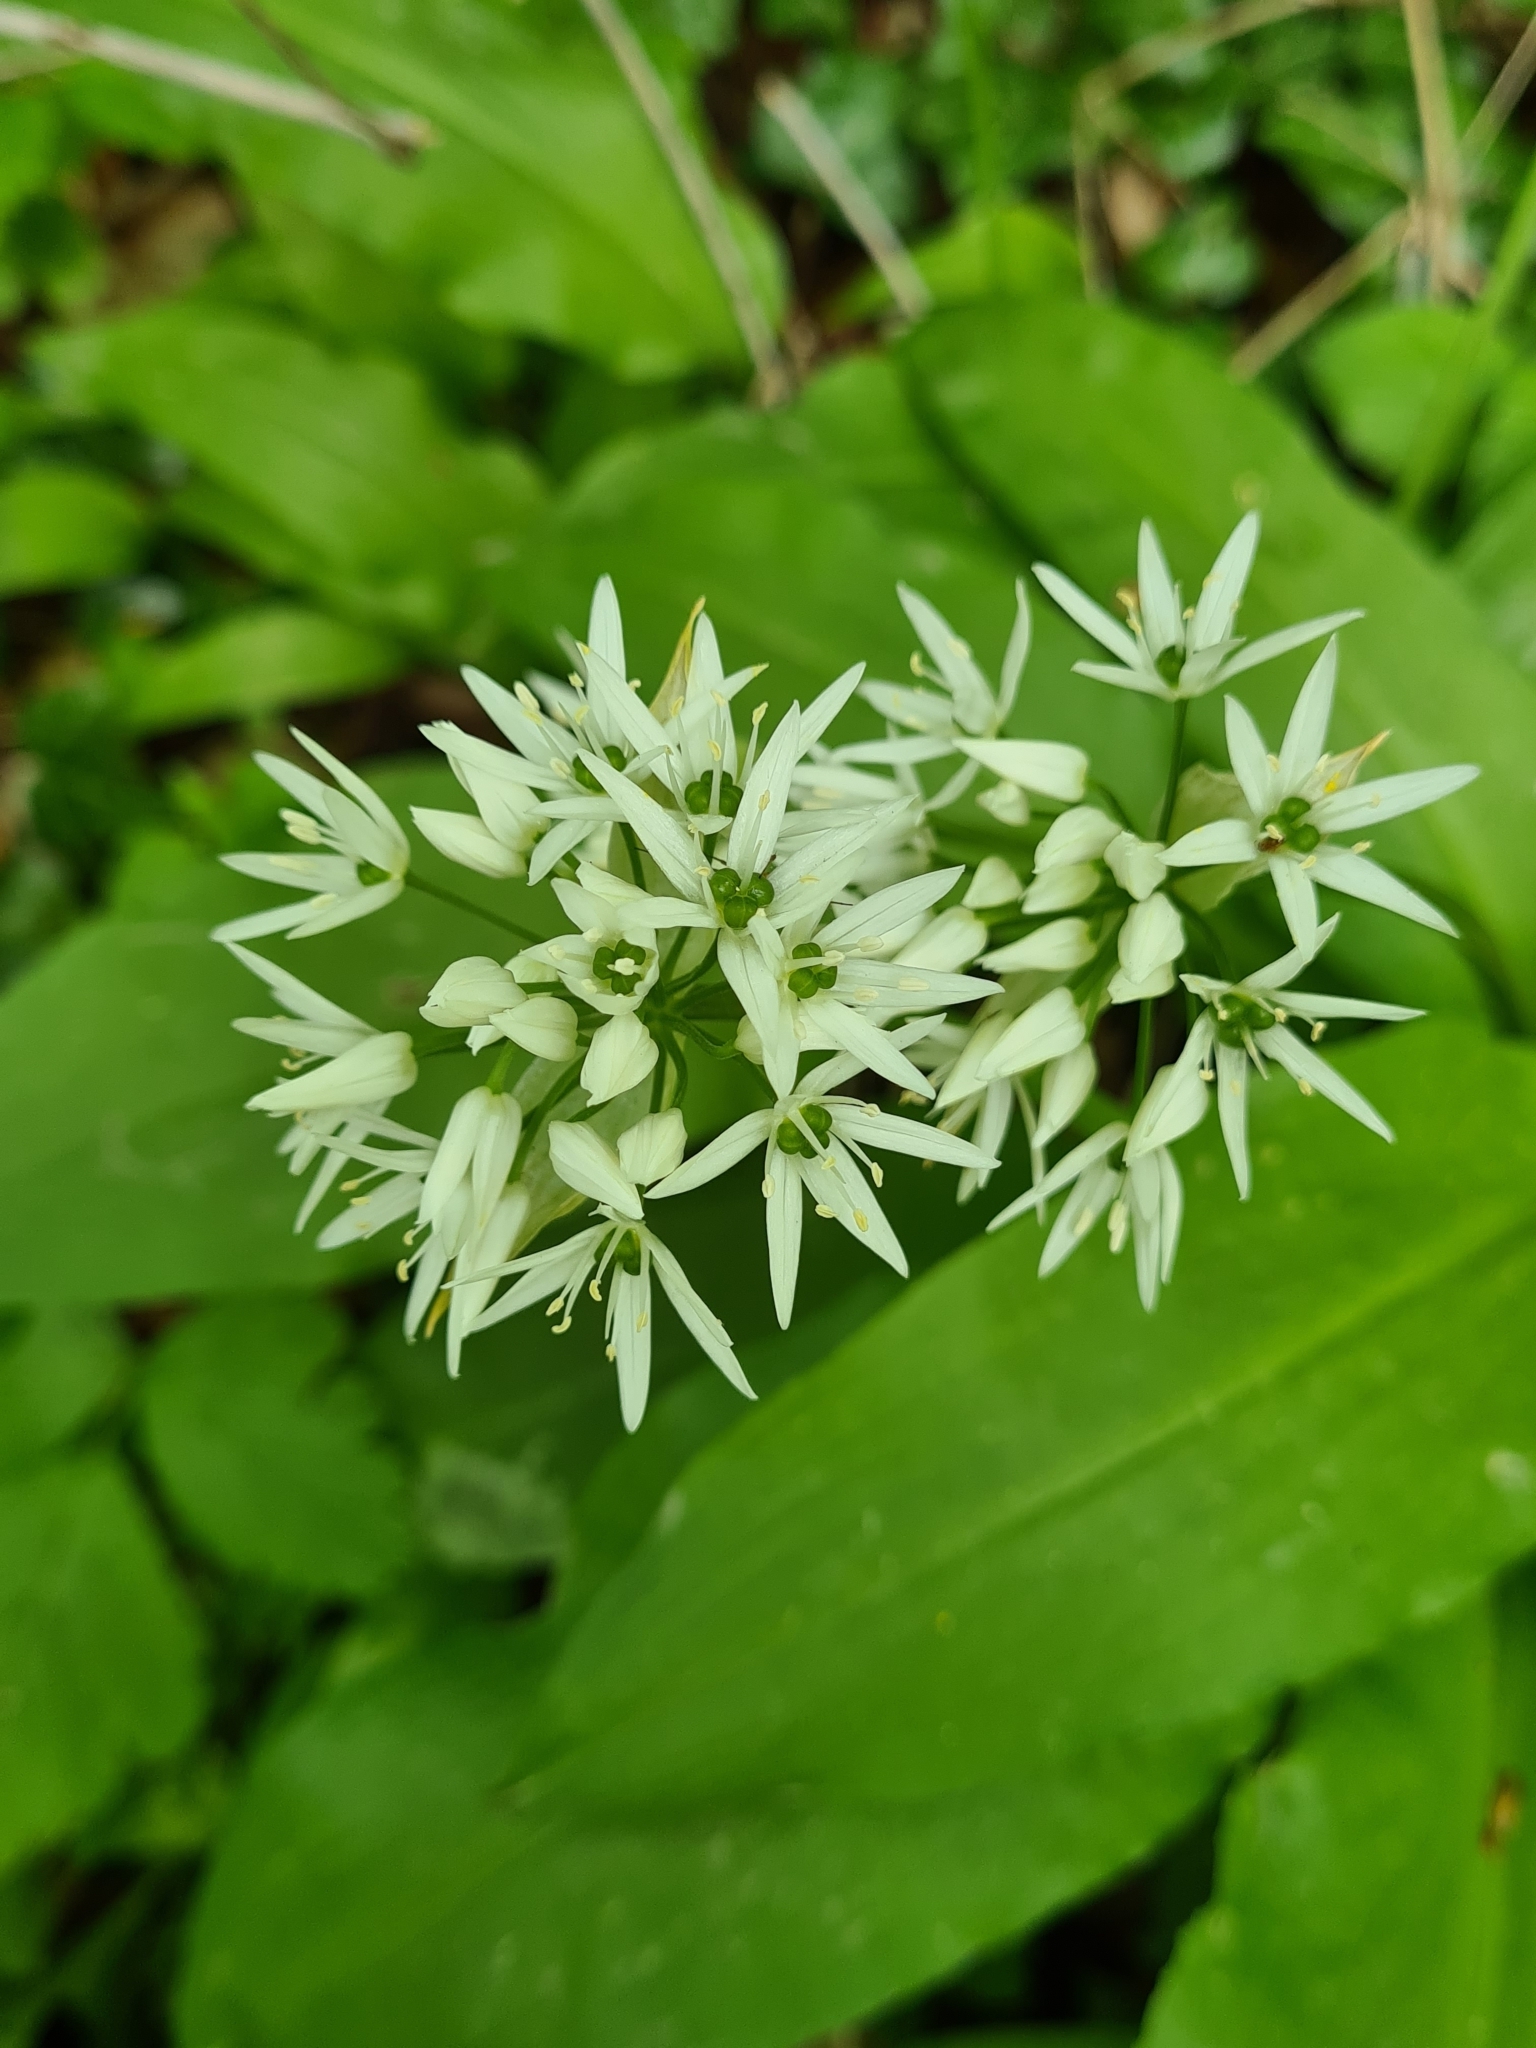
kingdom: Plantae
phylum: Tracheophyta
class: Liliopsida
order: Asparagales
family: Amaryllidaceae
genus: Allium
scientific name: Allium ursinum
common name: Ramsons
